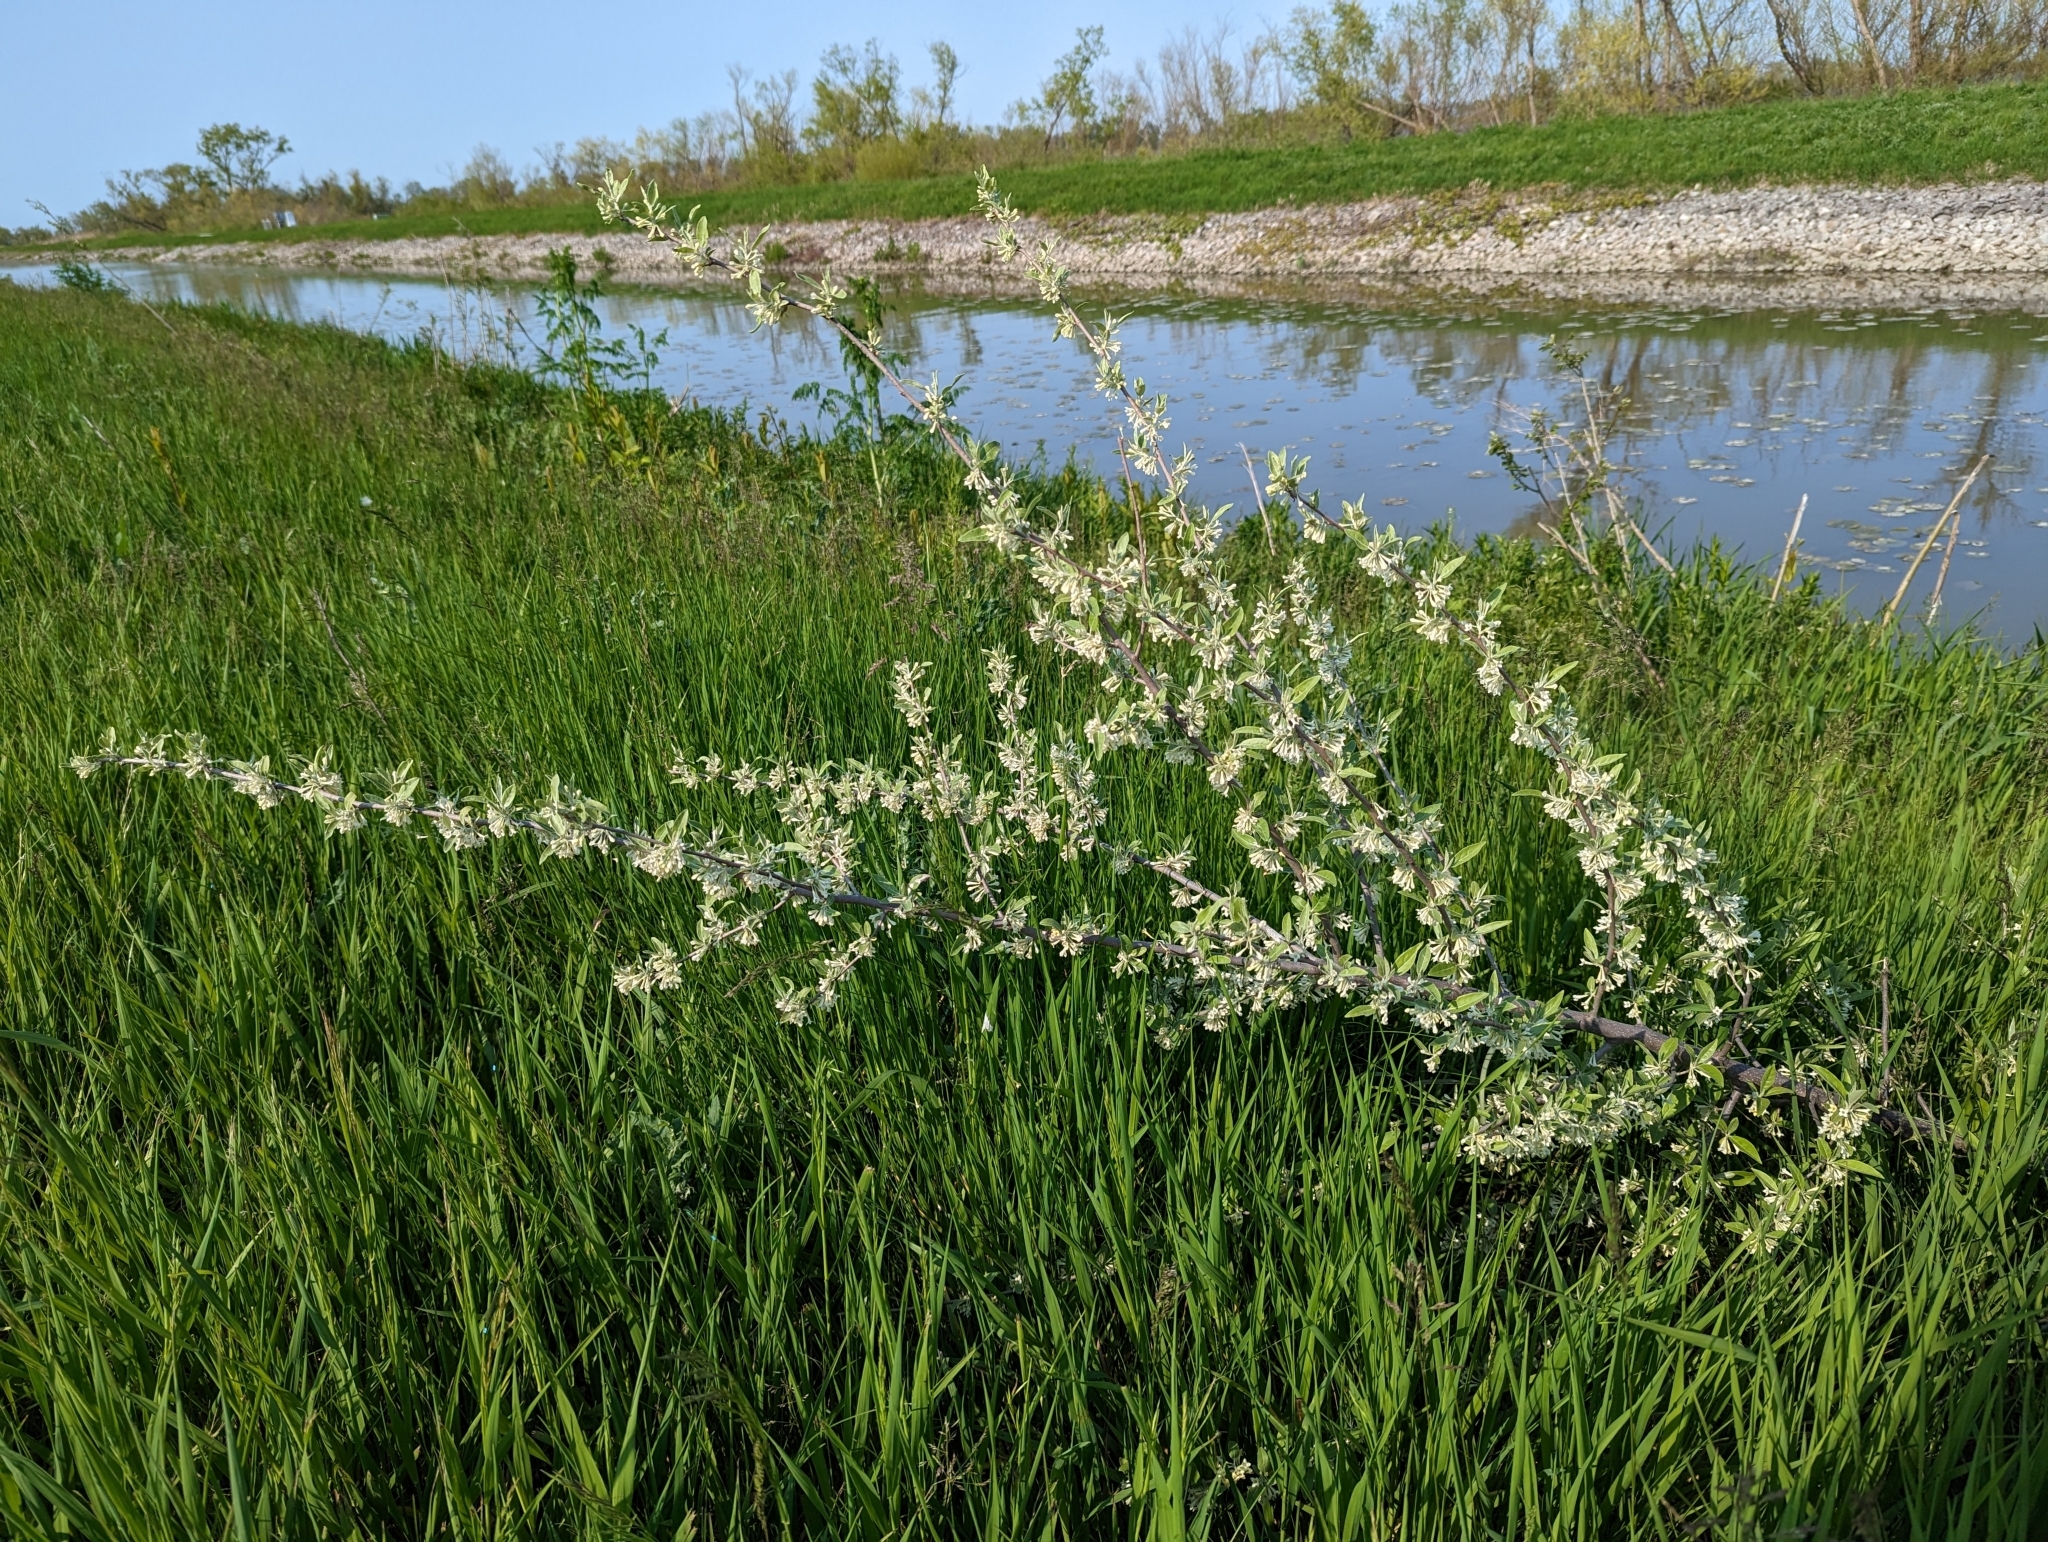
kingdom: Plantae
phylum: Tracheophyta
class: Magnoliopsida
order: Rosales
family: Elaeagnaceae
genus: Elaeagnus
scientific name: Elaeagnus umbellata
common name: Autumn olive
